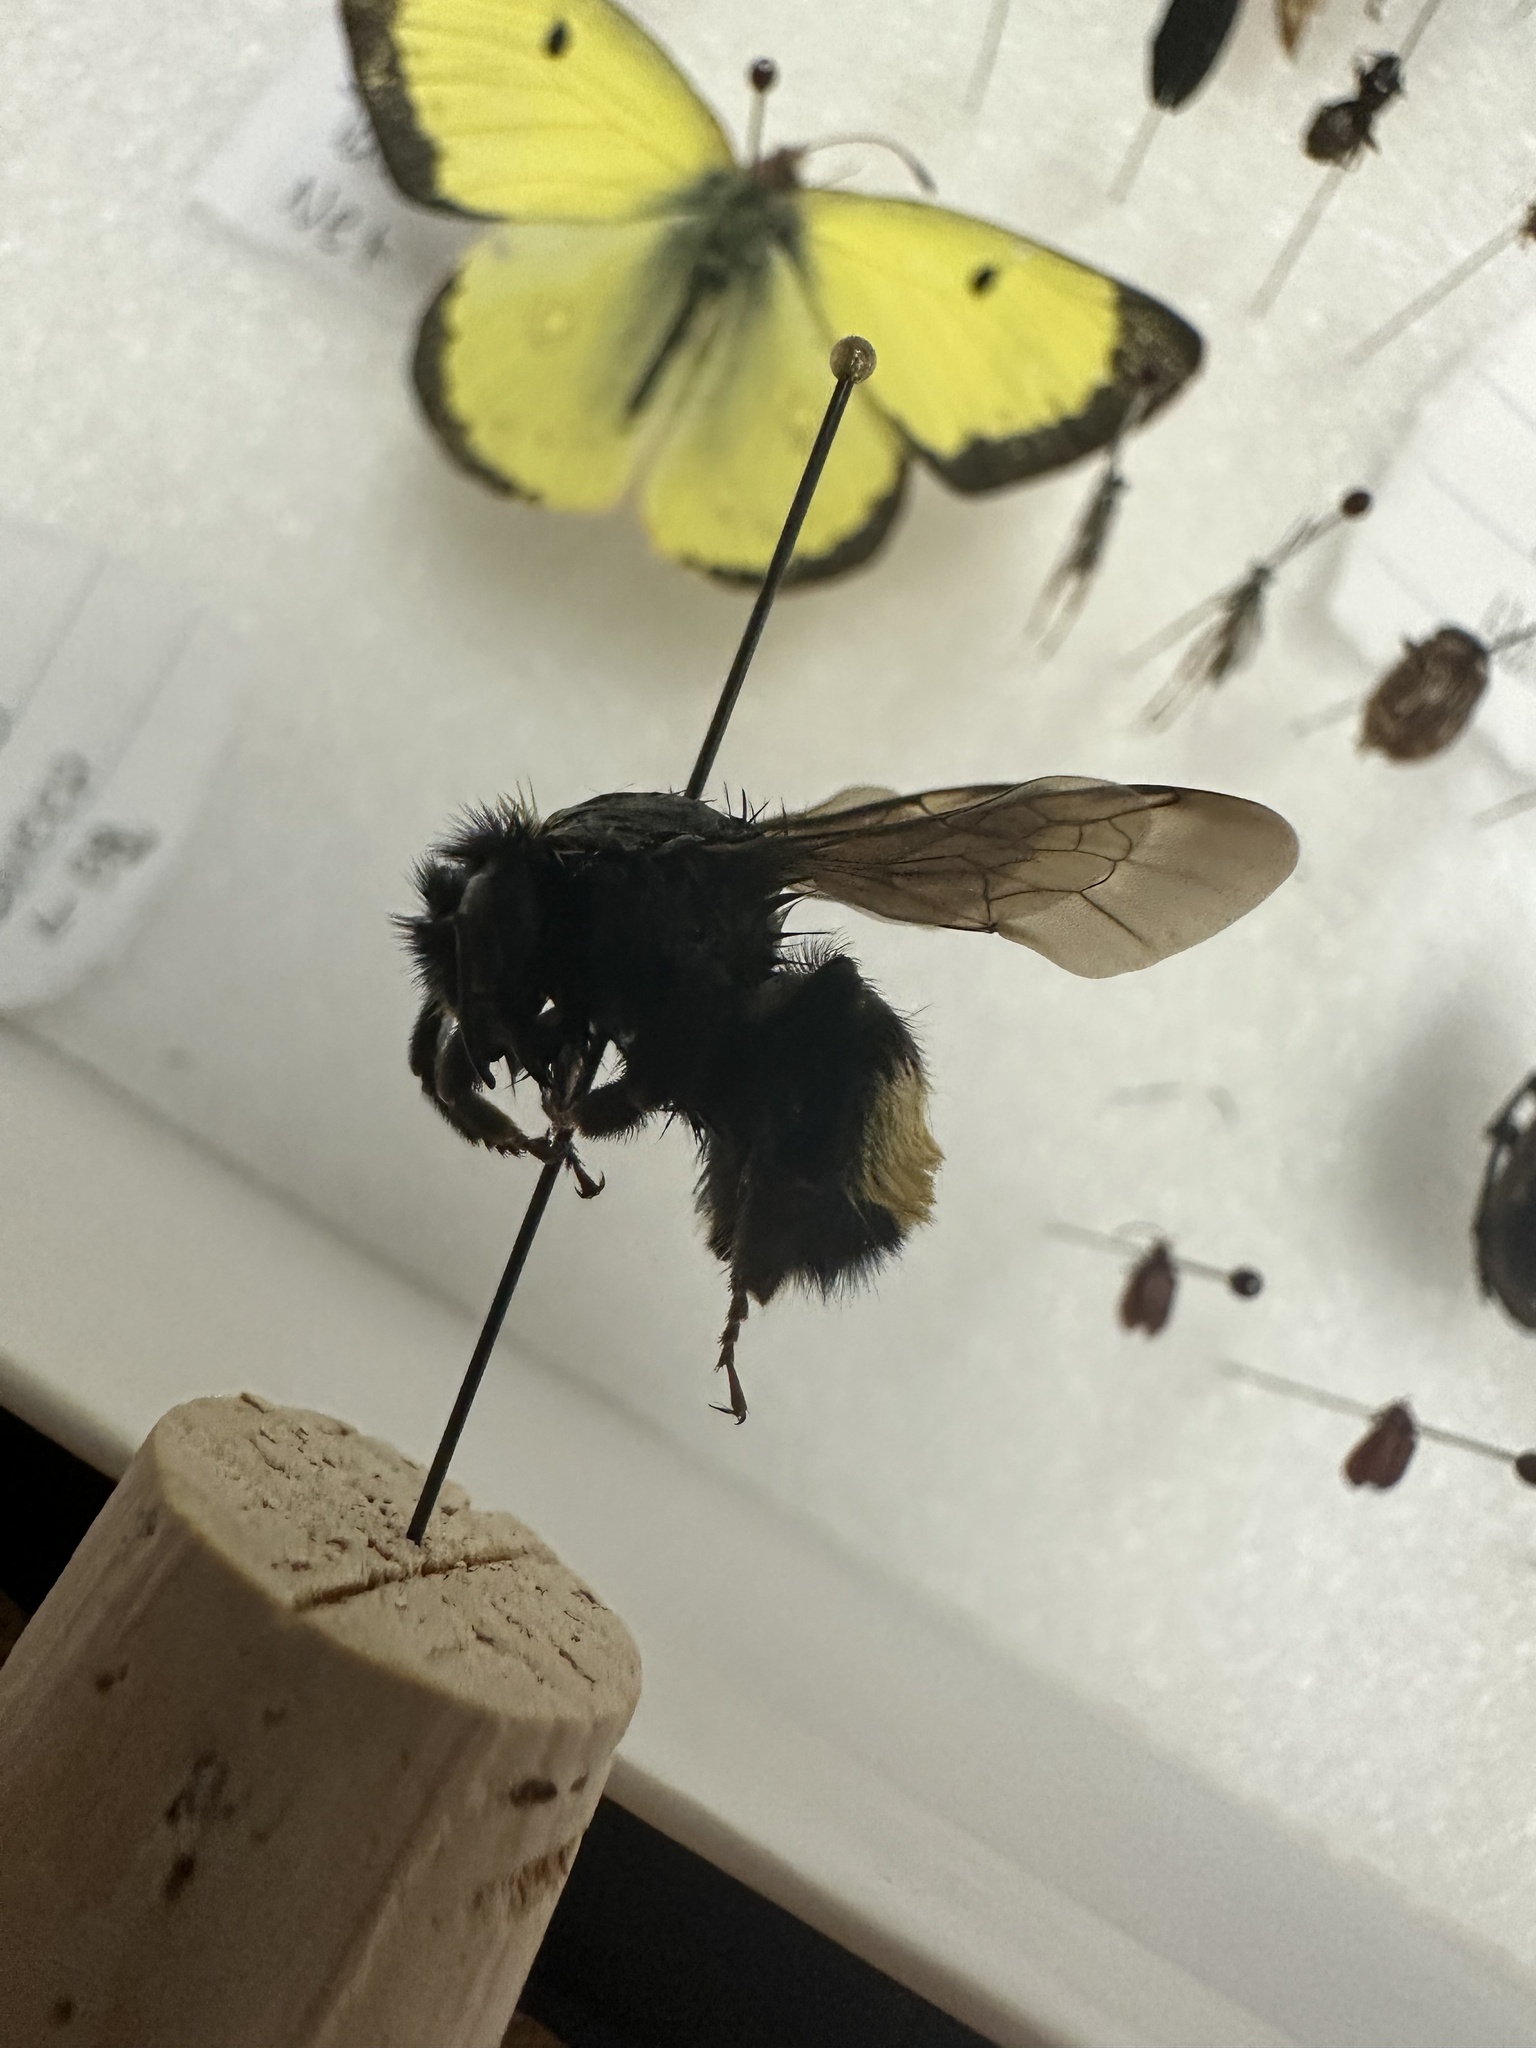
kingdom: Animalia
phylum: Arthropoda
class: Insecta
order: Hymenoptera
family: Apidae
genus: Bombus
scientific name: Bombus terricola
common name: Yellow-banded bumble bee
